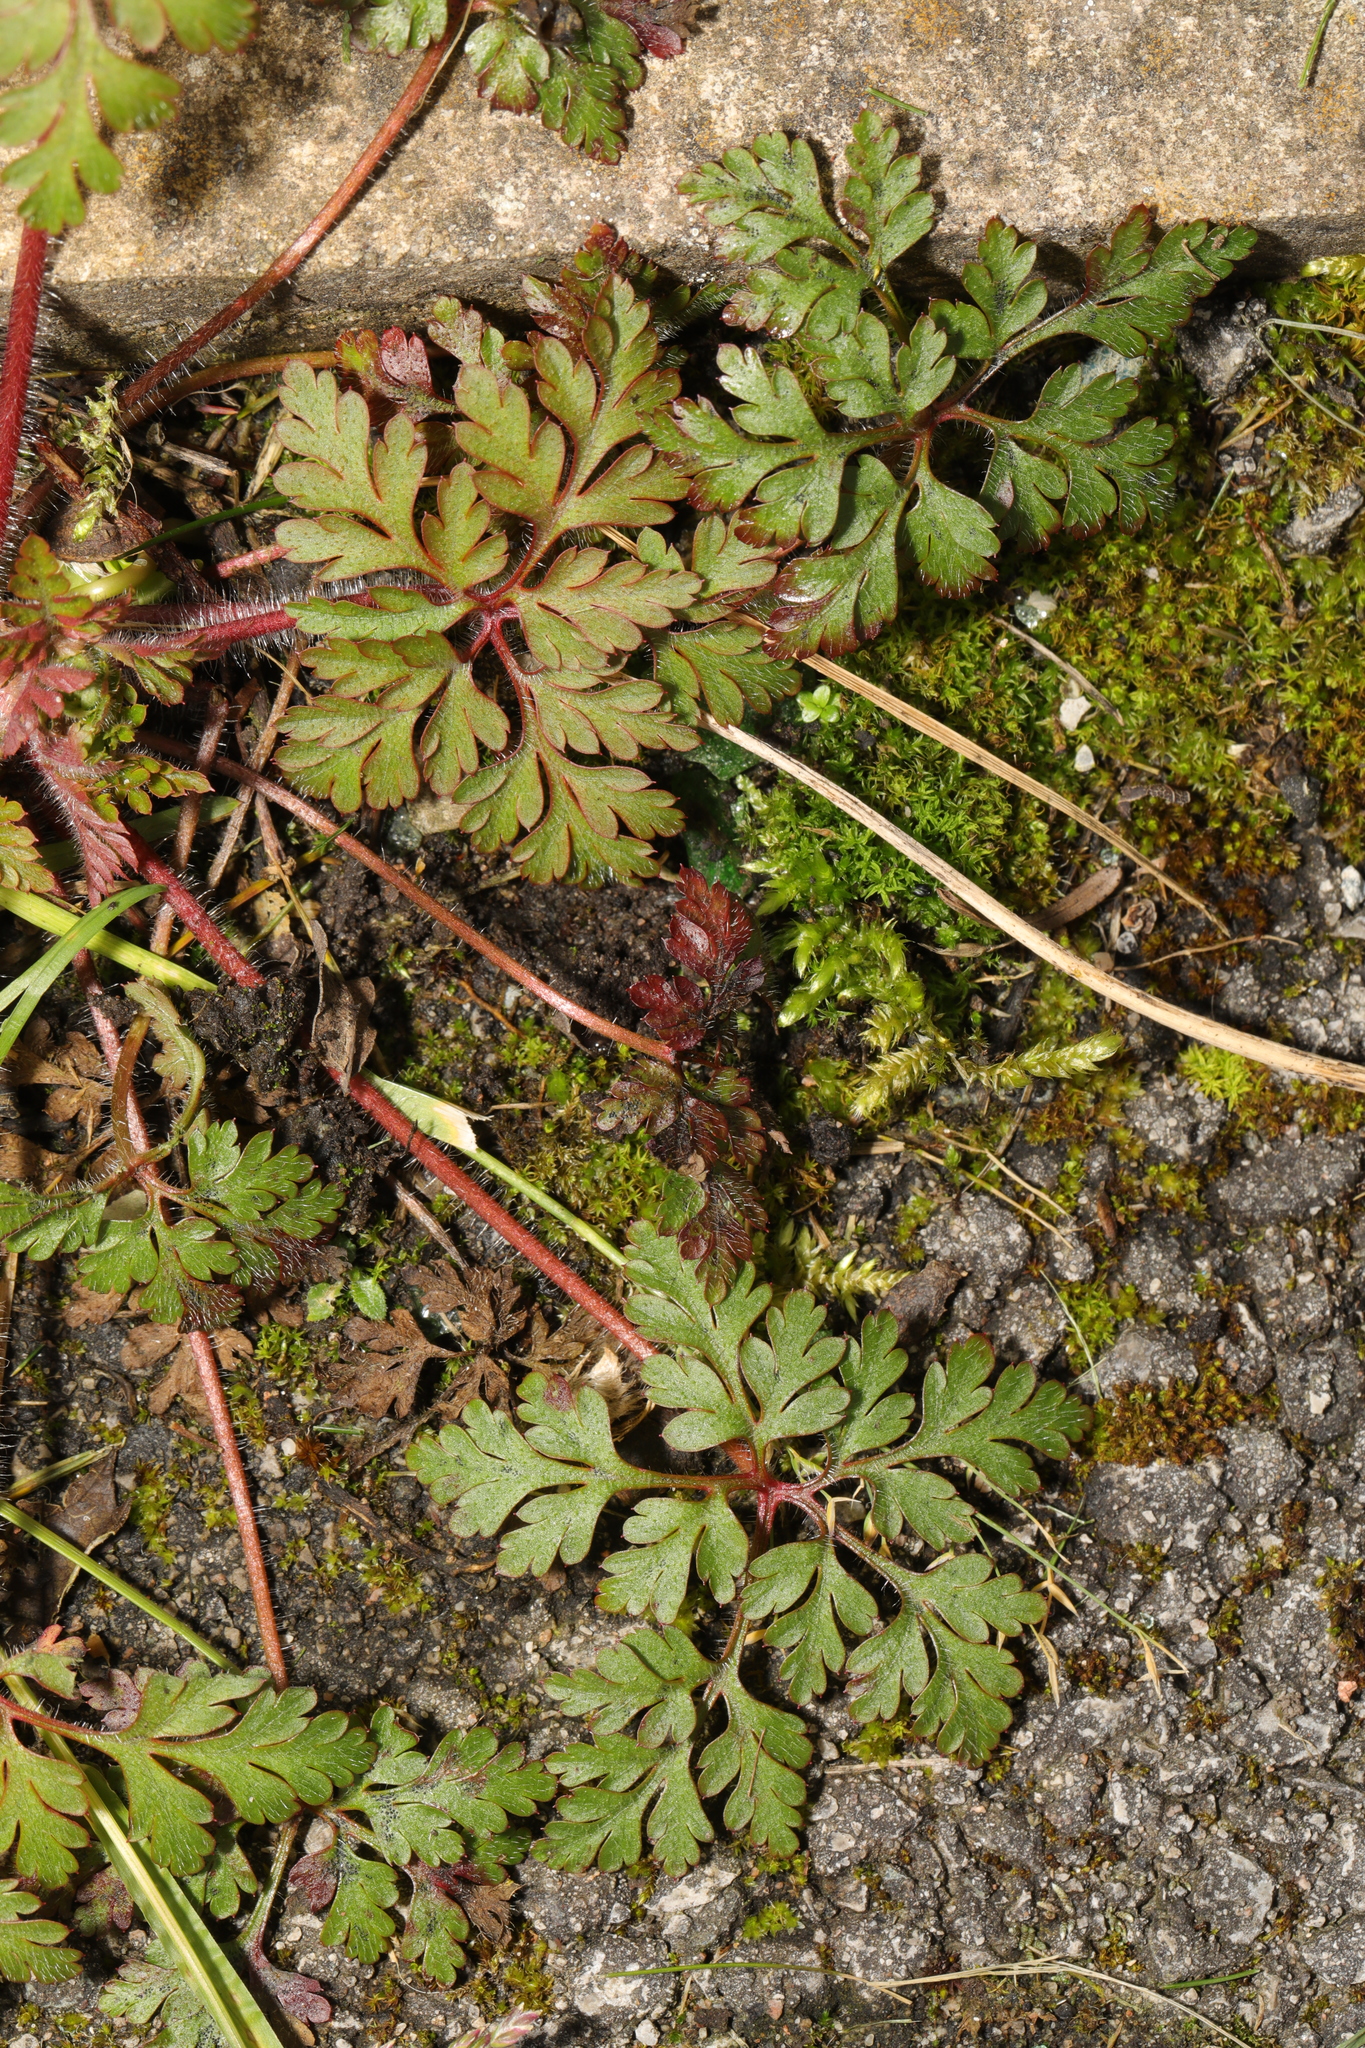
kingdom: Plantae
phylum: Tracheophyta
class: Magnoliopsida
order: Geraniales
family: Geraniaceae
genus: Geranium
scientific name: Geranium robertianum
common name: Herb-robert
